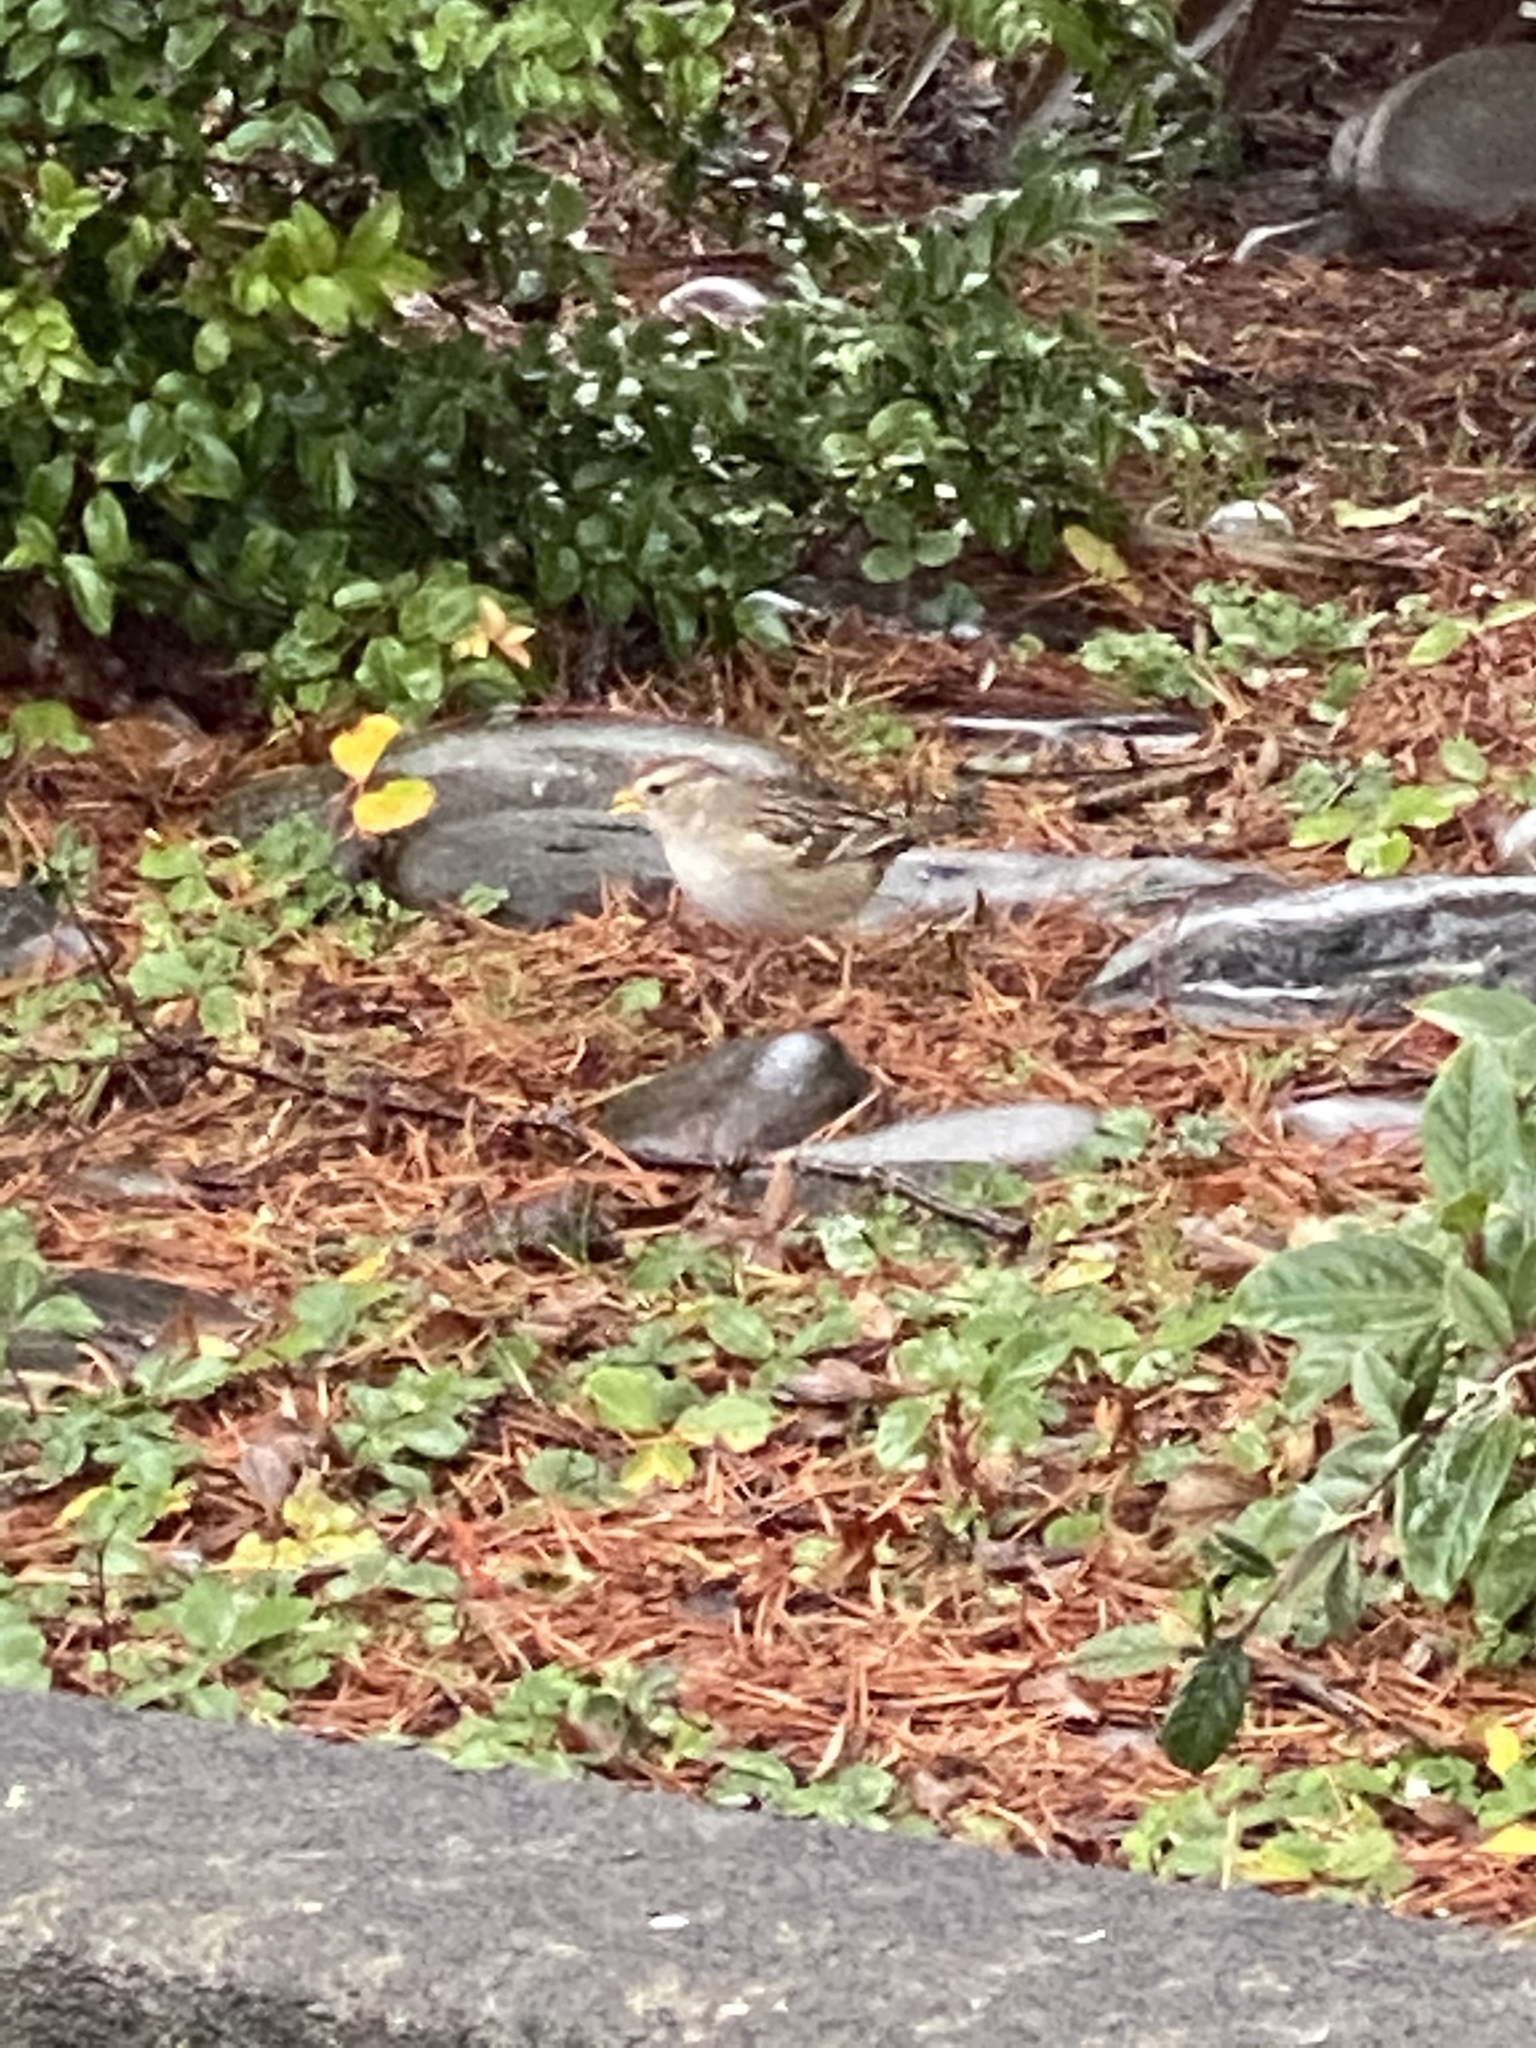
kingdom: Animalia
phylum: Chordata
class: Aves
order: Passeriformes
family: Passerellidae
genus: Zonotrichia
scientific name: Zonotrichia leucophrys
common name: White-crowned sparrow
